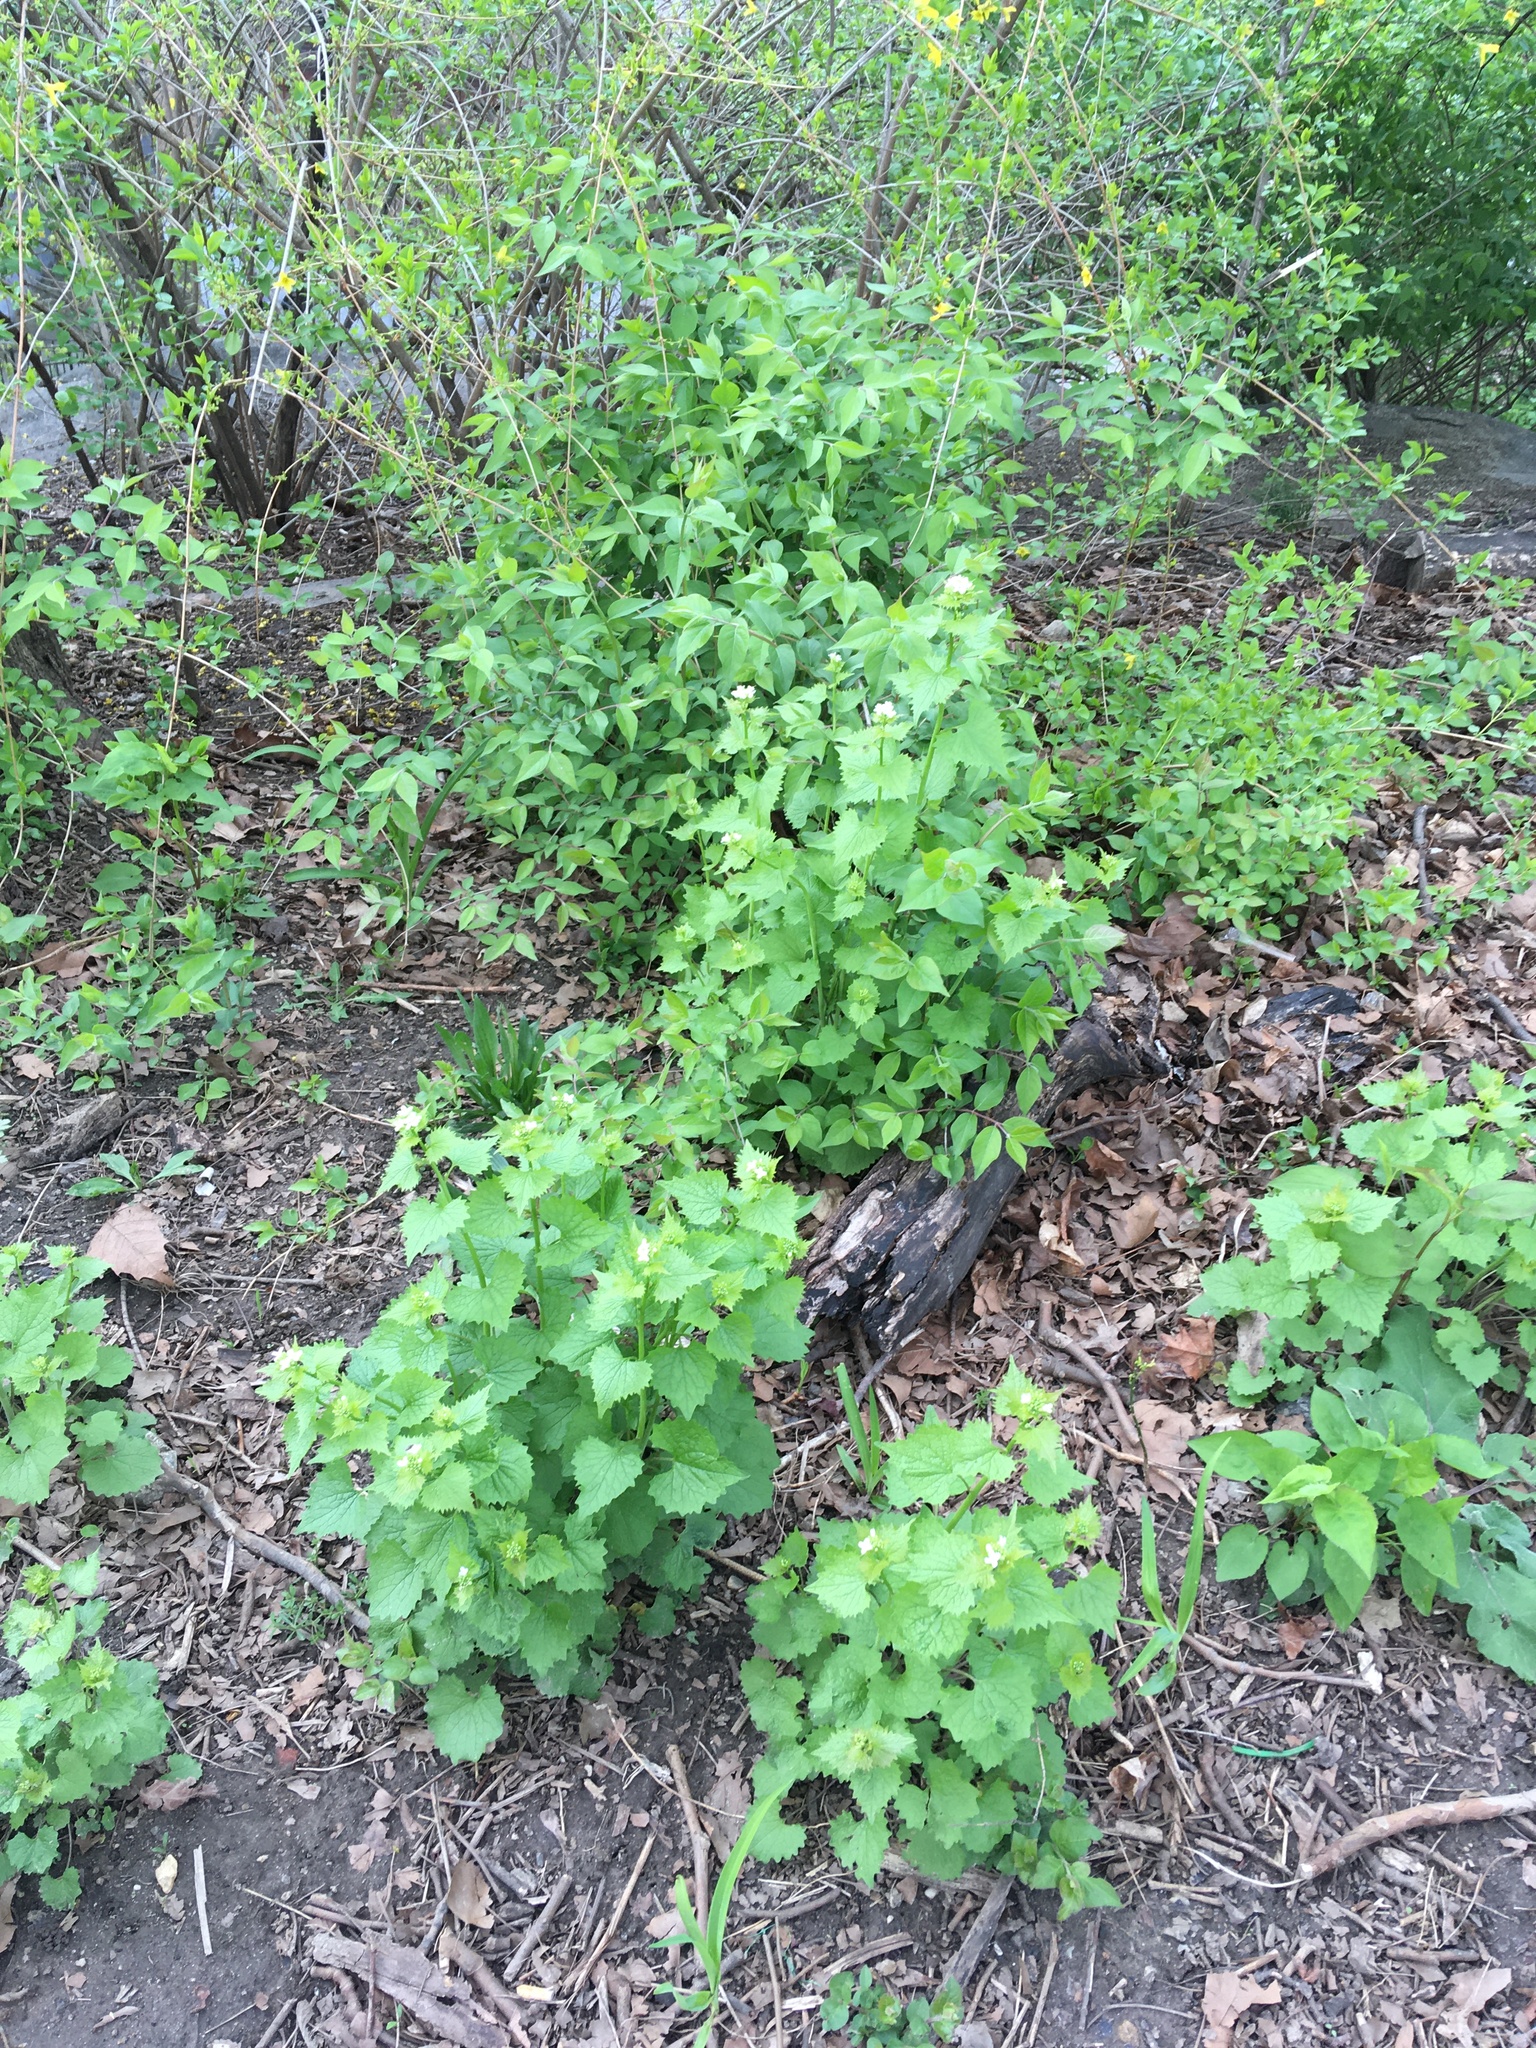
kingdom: Plantae
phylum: Tracheophyta
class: Magnoliopsida
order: Brassicales
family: Brassicaceae
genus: Alliaria
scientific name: Alliaria petiolata
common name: Garlic mustard
